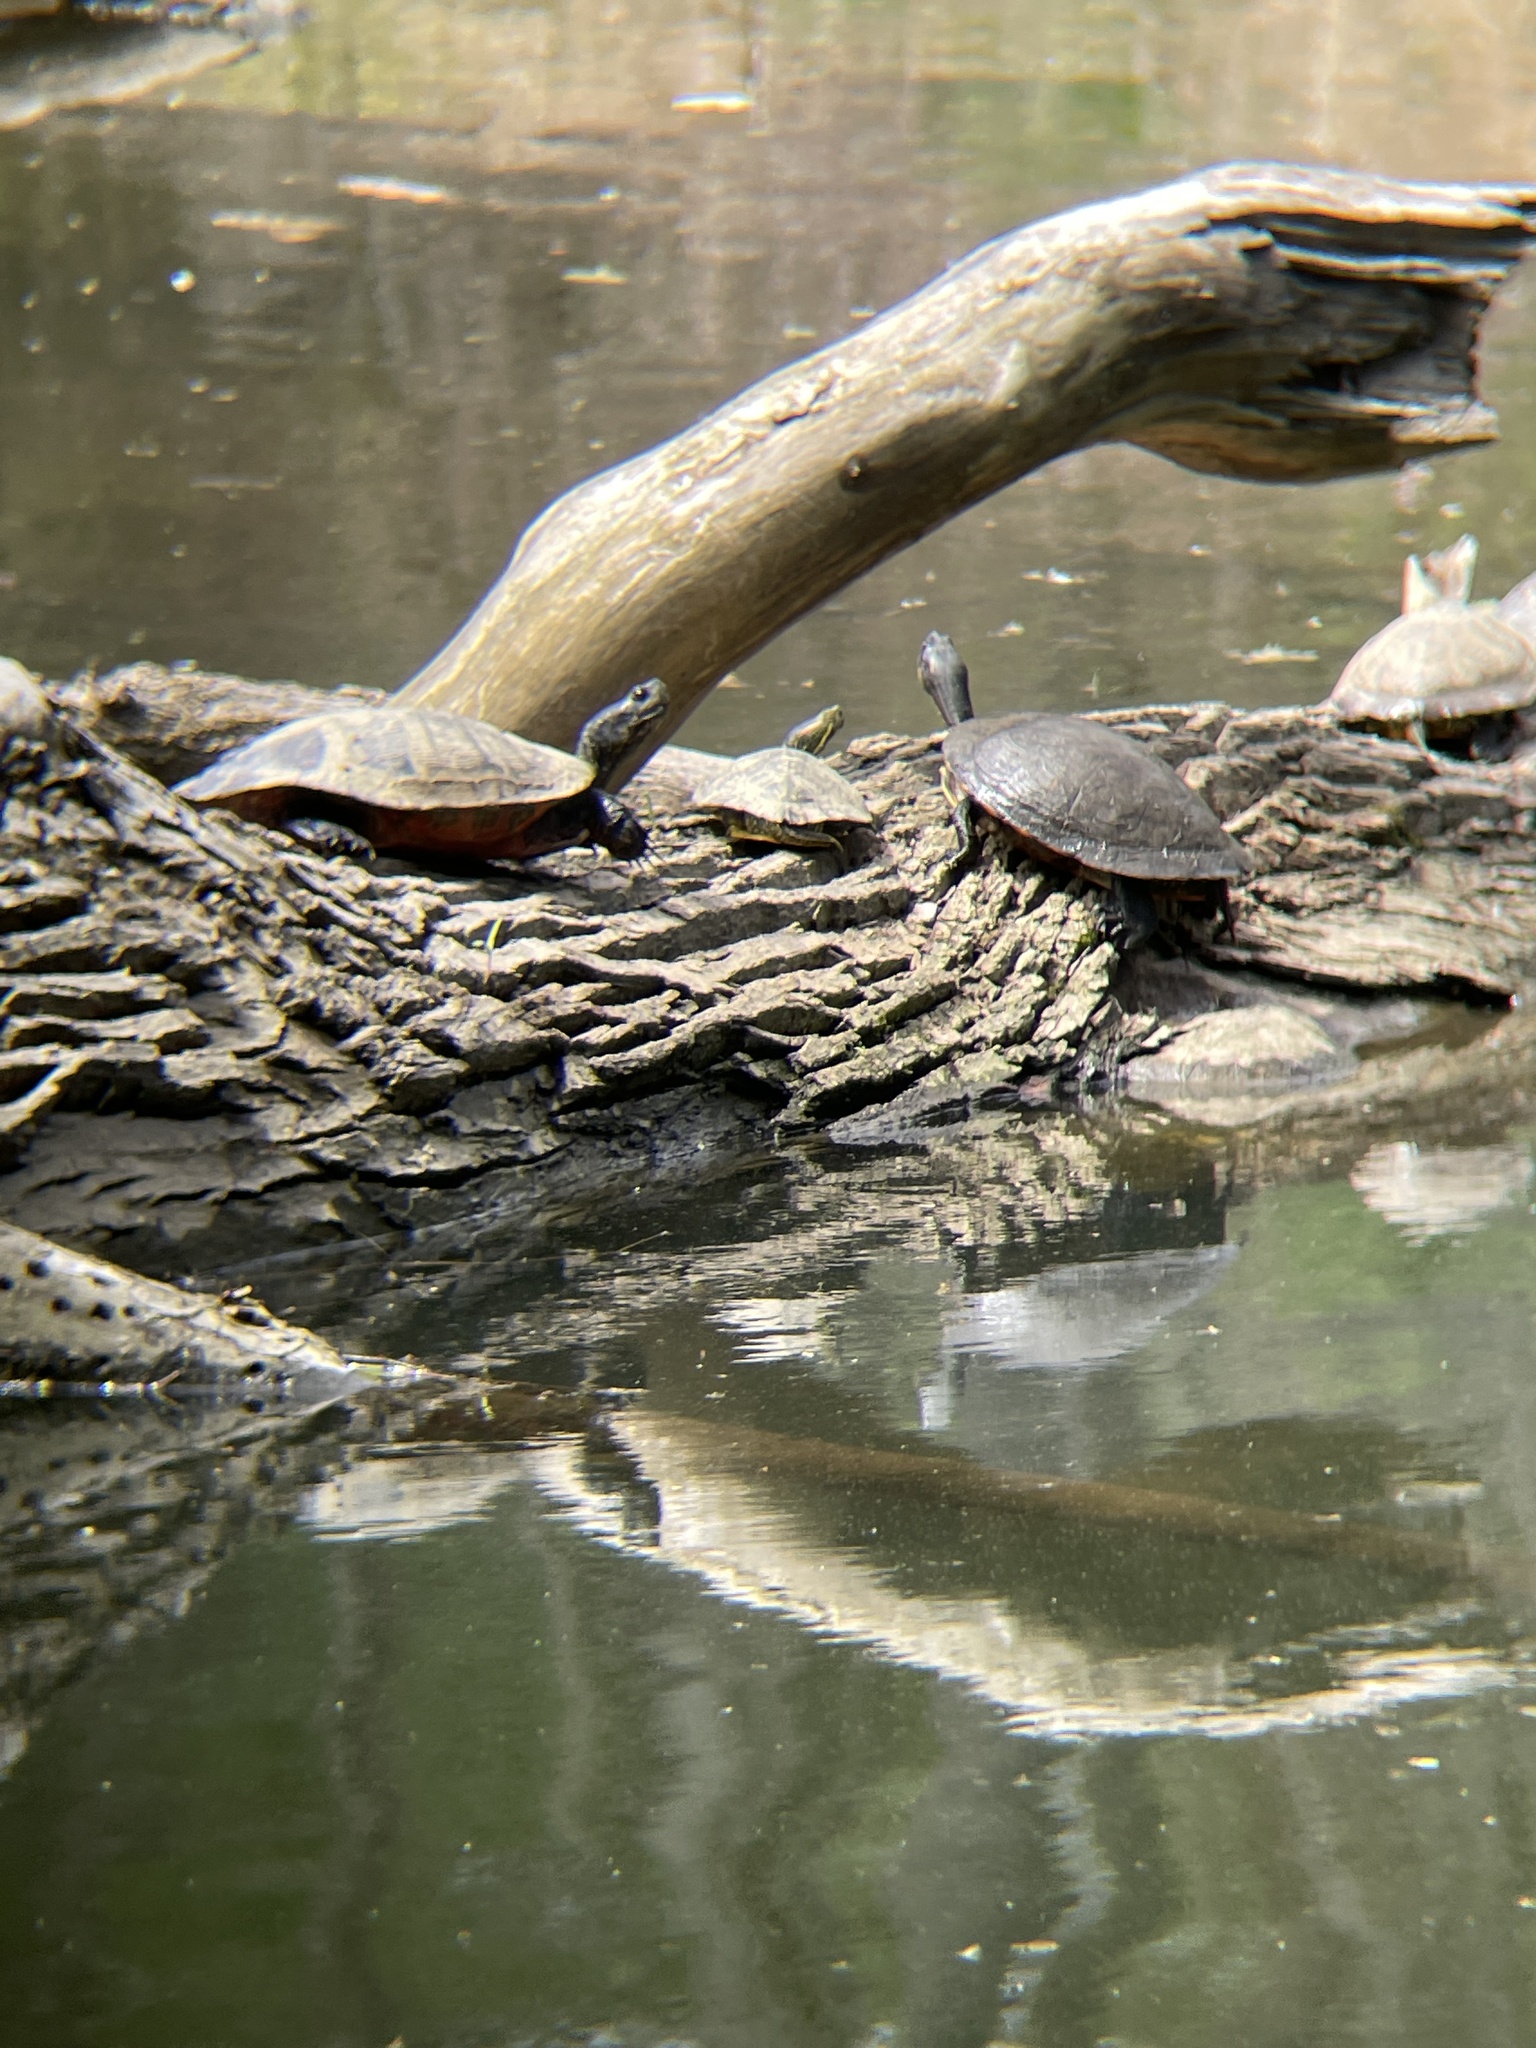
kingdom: Animalia
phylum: Chordata
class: Testudines
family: Emydidae
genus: Chrysemys
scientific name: Chrysemys picta
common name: Painted turtle
